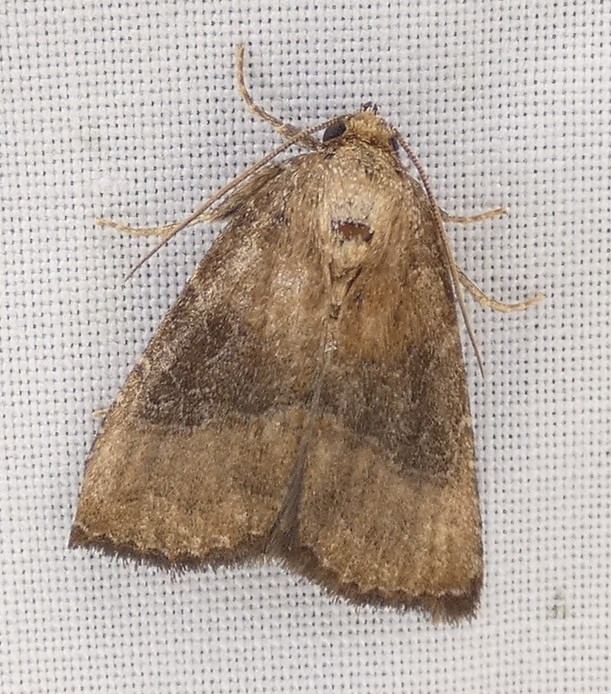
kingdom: Animalia
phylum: Arthropoda
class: Insecta
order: Lepidoptera
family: Noctuidae
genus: Ogdoconta
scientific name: Ogdoconta cinereola
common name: Common pinkband
